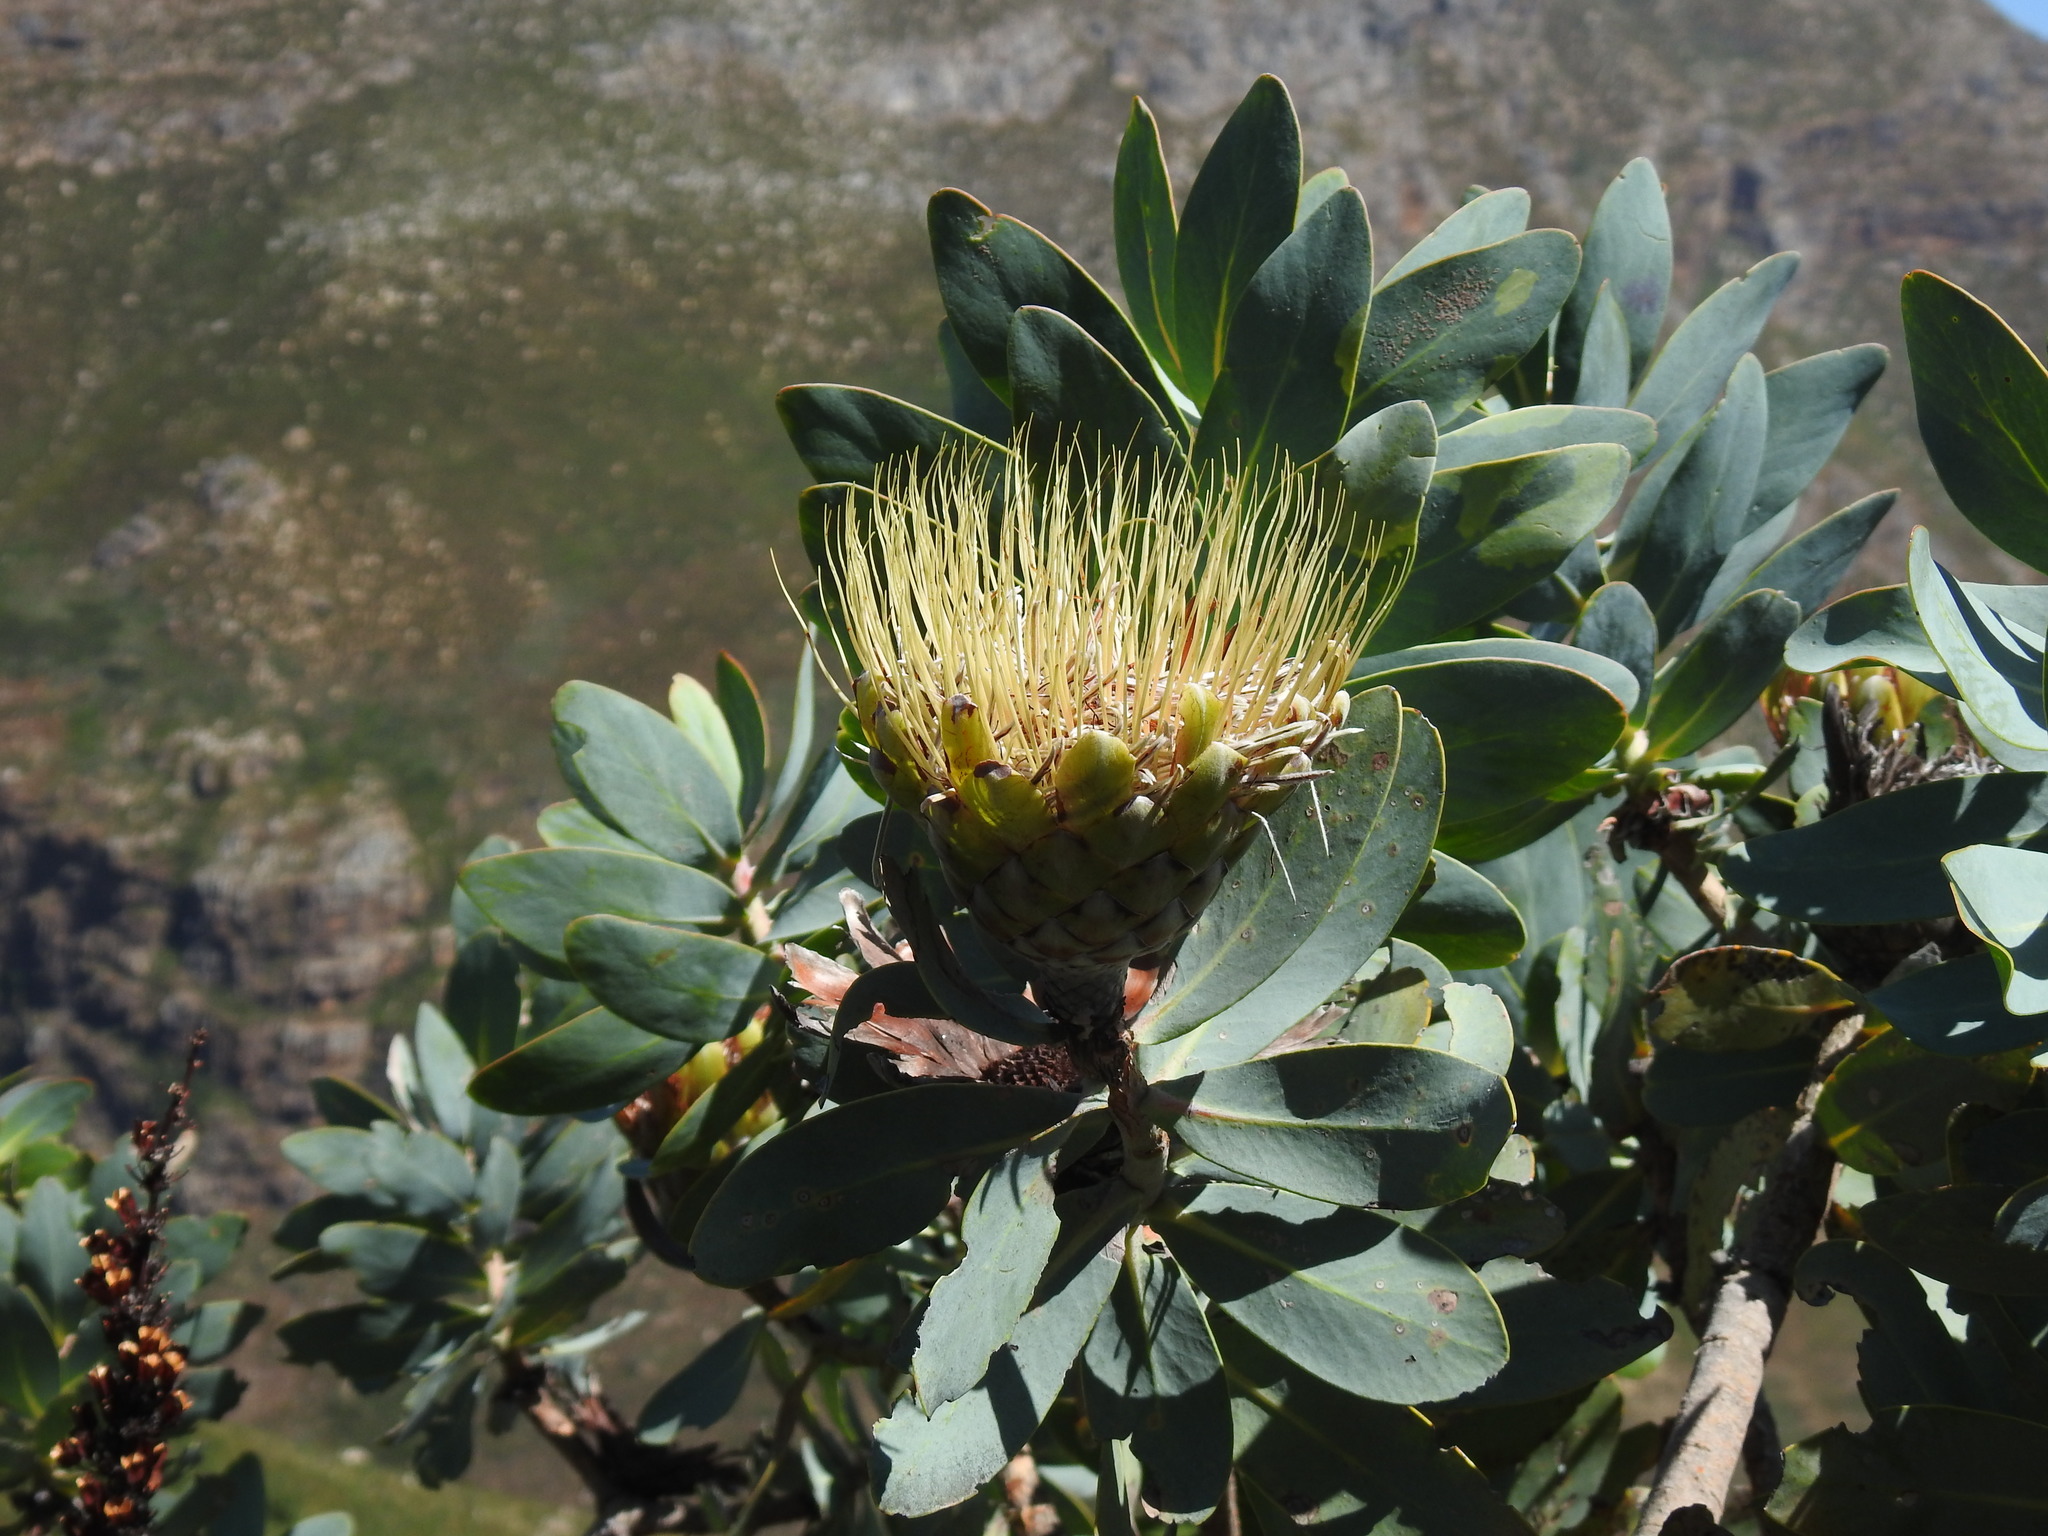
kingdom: Plantae
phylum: Tracheophyta
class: Magnoliopsida
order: Proteales
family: Proteaceae
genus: Protea
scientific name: Protea nitida
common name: Tree protea
